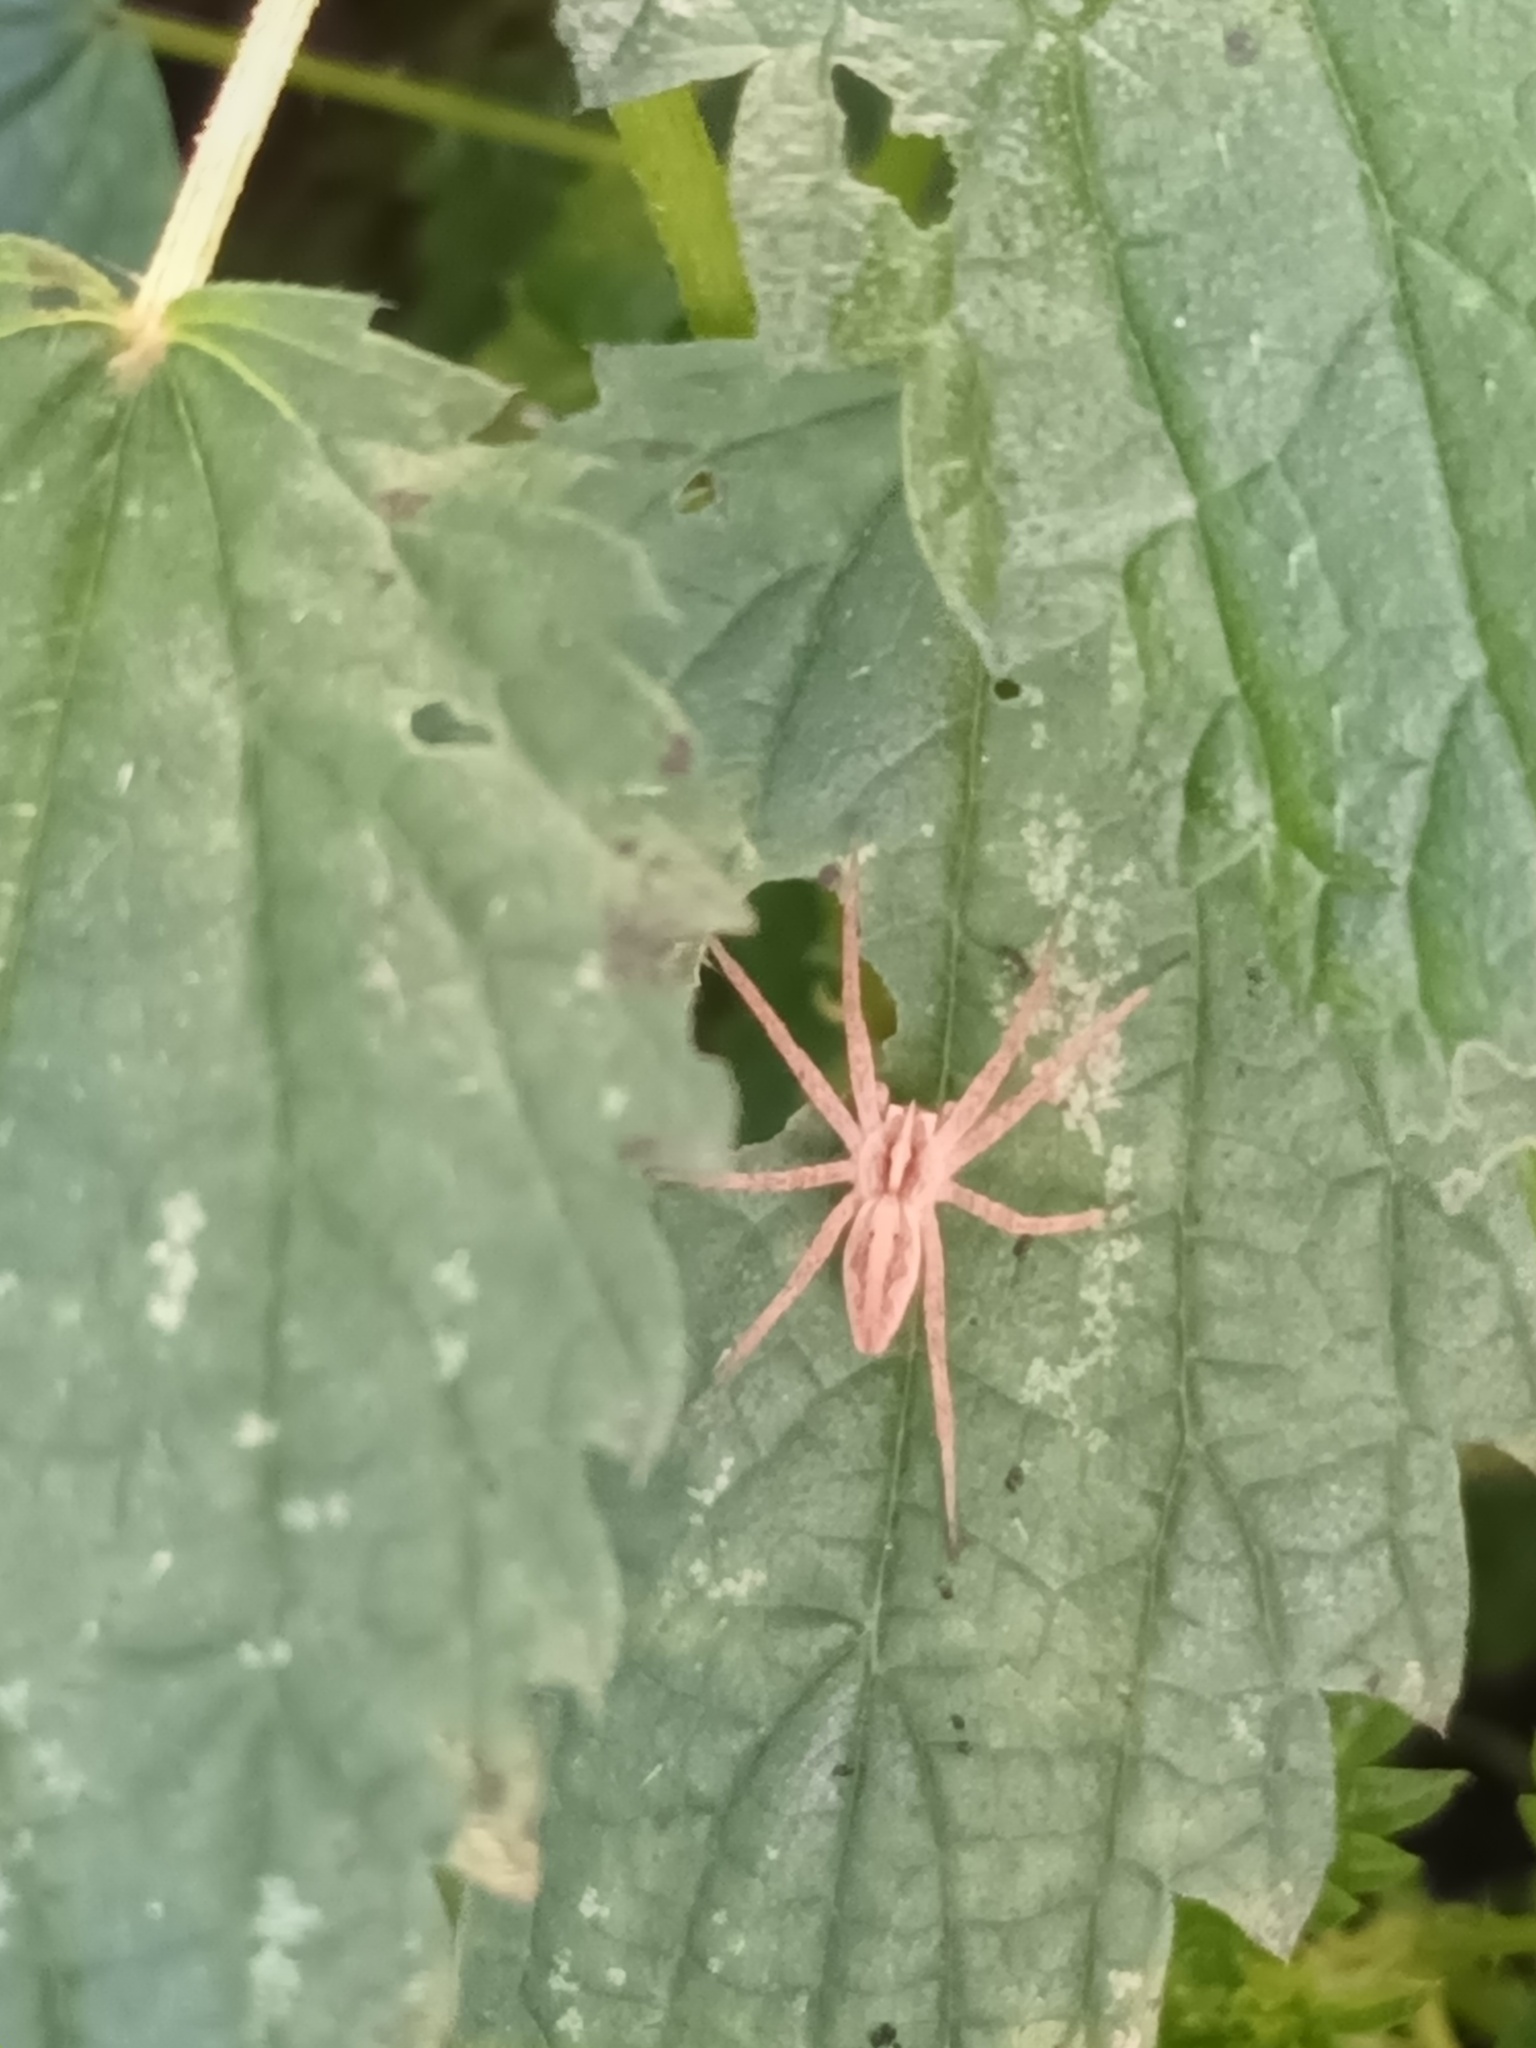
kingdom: Animalia
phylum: Arthropoda
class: Arachnida
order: Araneae
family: Pisauridae
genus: Pisaura
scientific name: Pisaura mirabilis
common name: Tent spider
